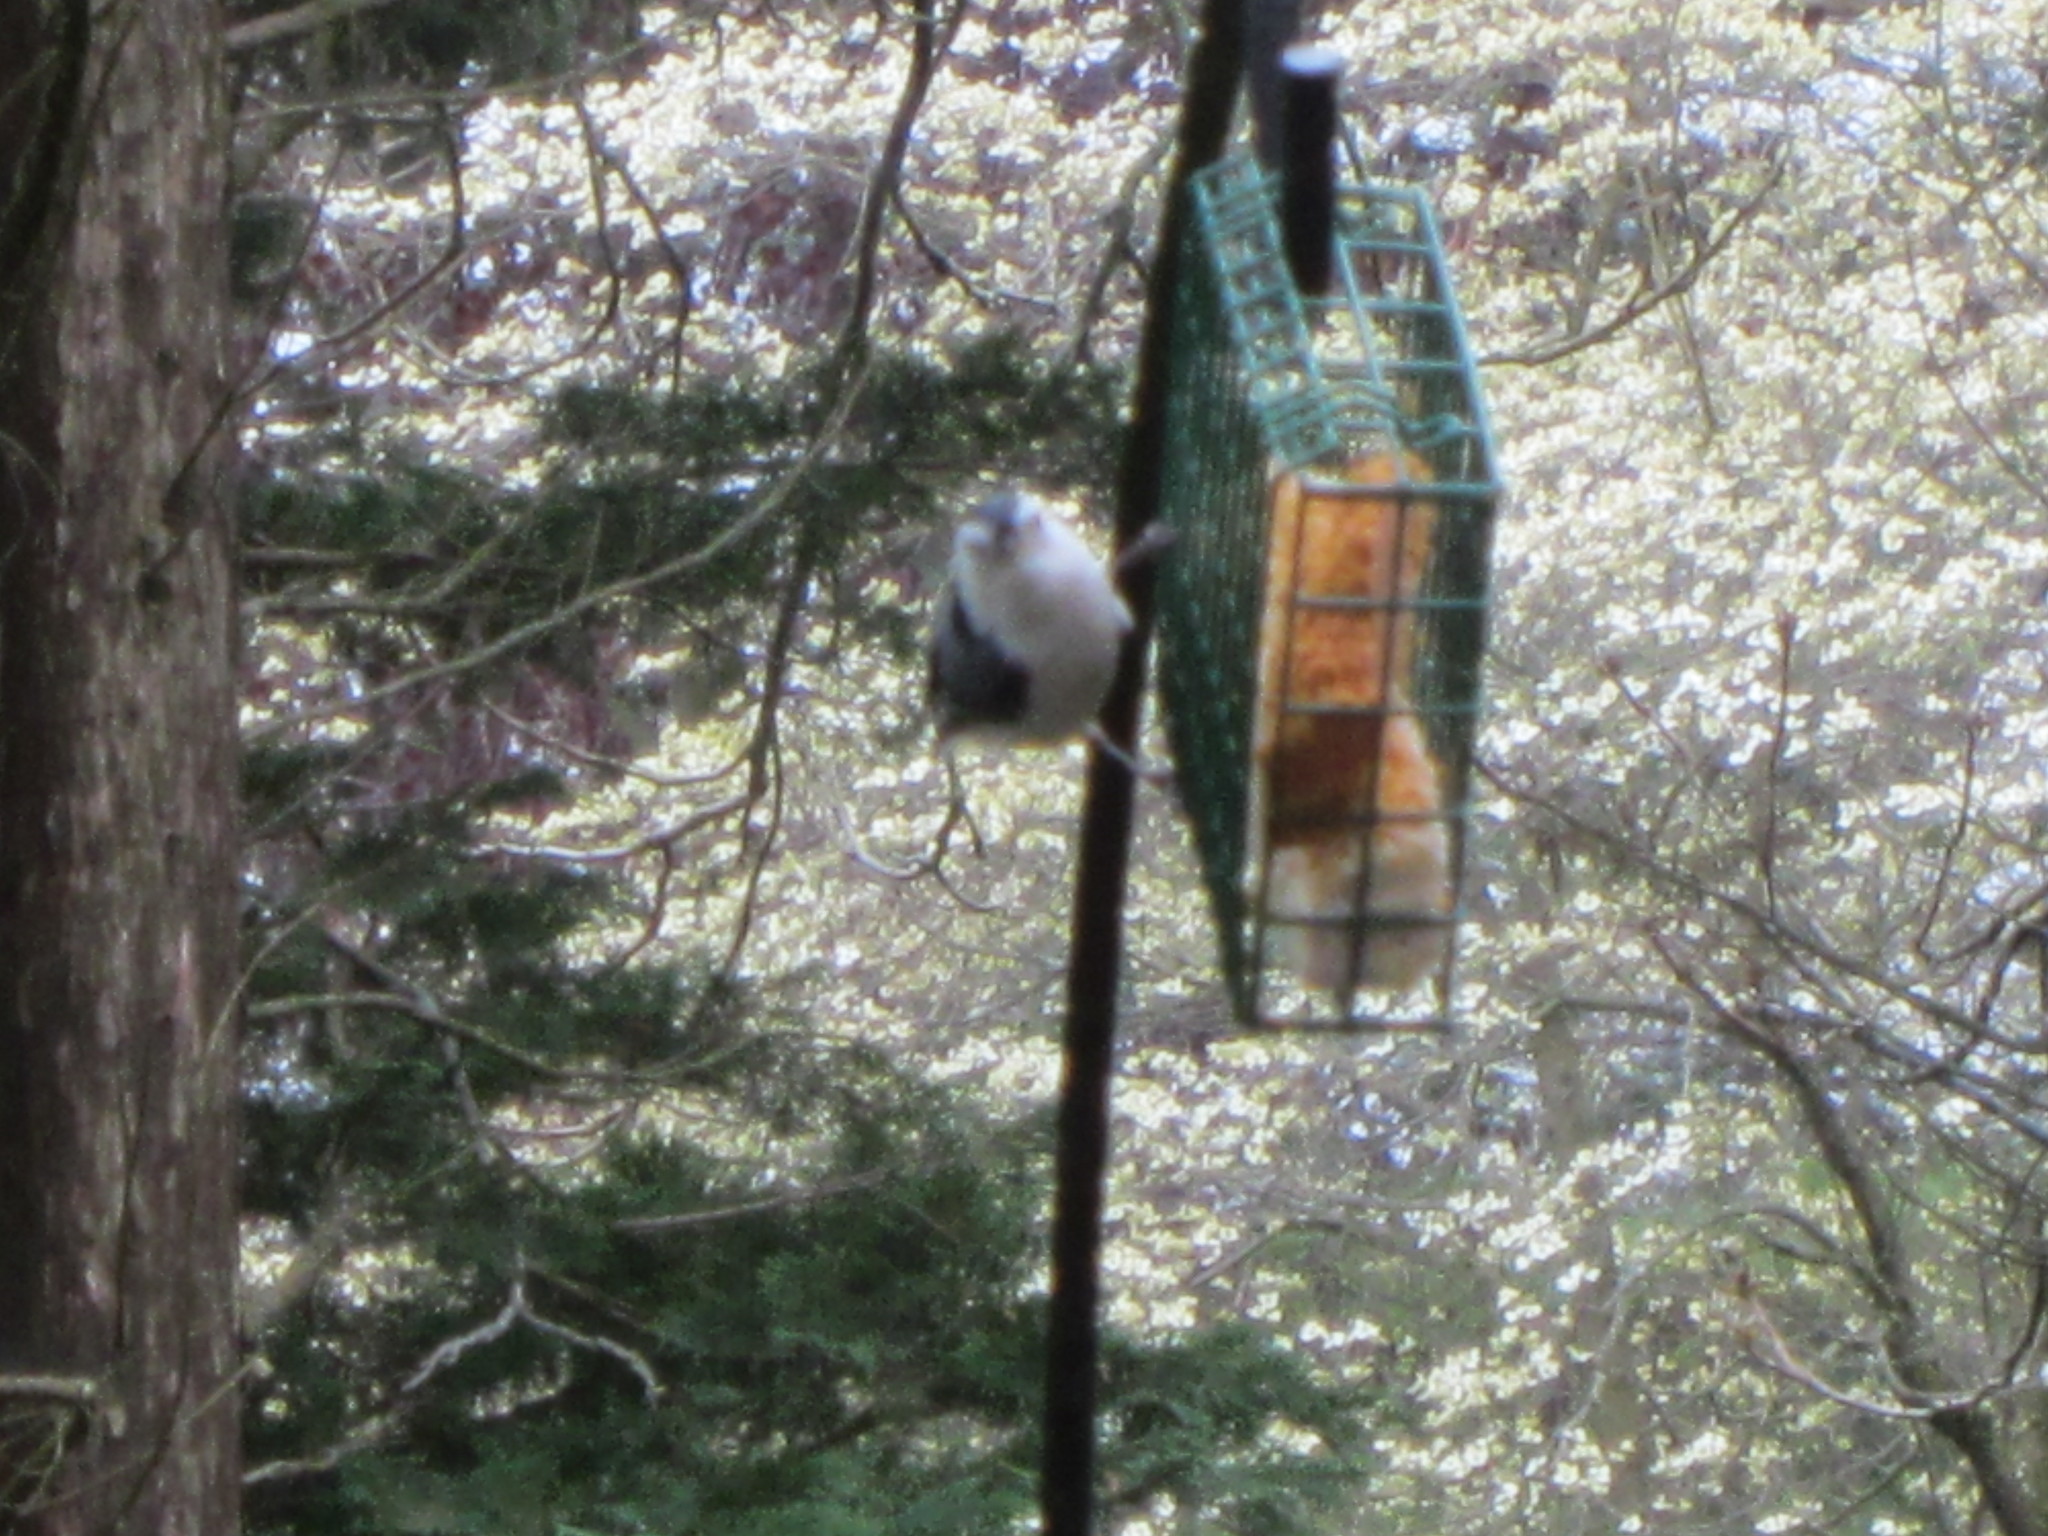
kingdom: Animalia
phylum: Chordata
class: Aves
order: Passeriformes
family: Sittidae
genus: Sitta
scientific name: Sitta carolinensis
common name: White-breasted nuthatch
